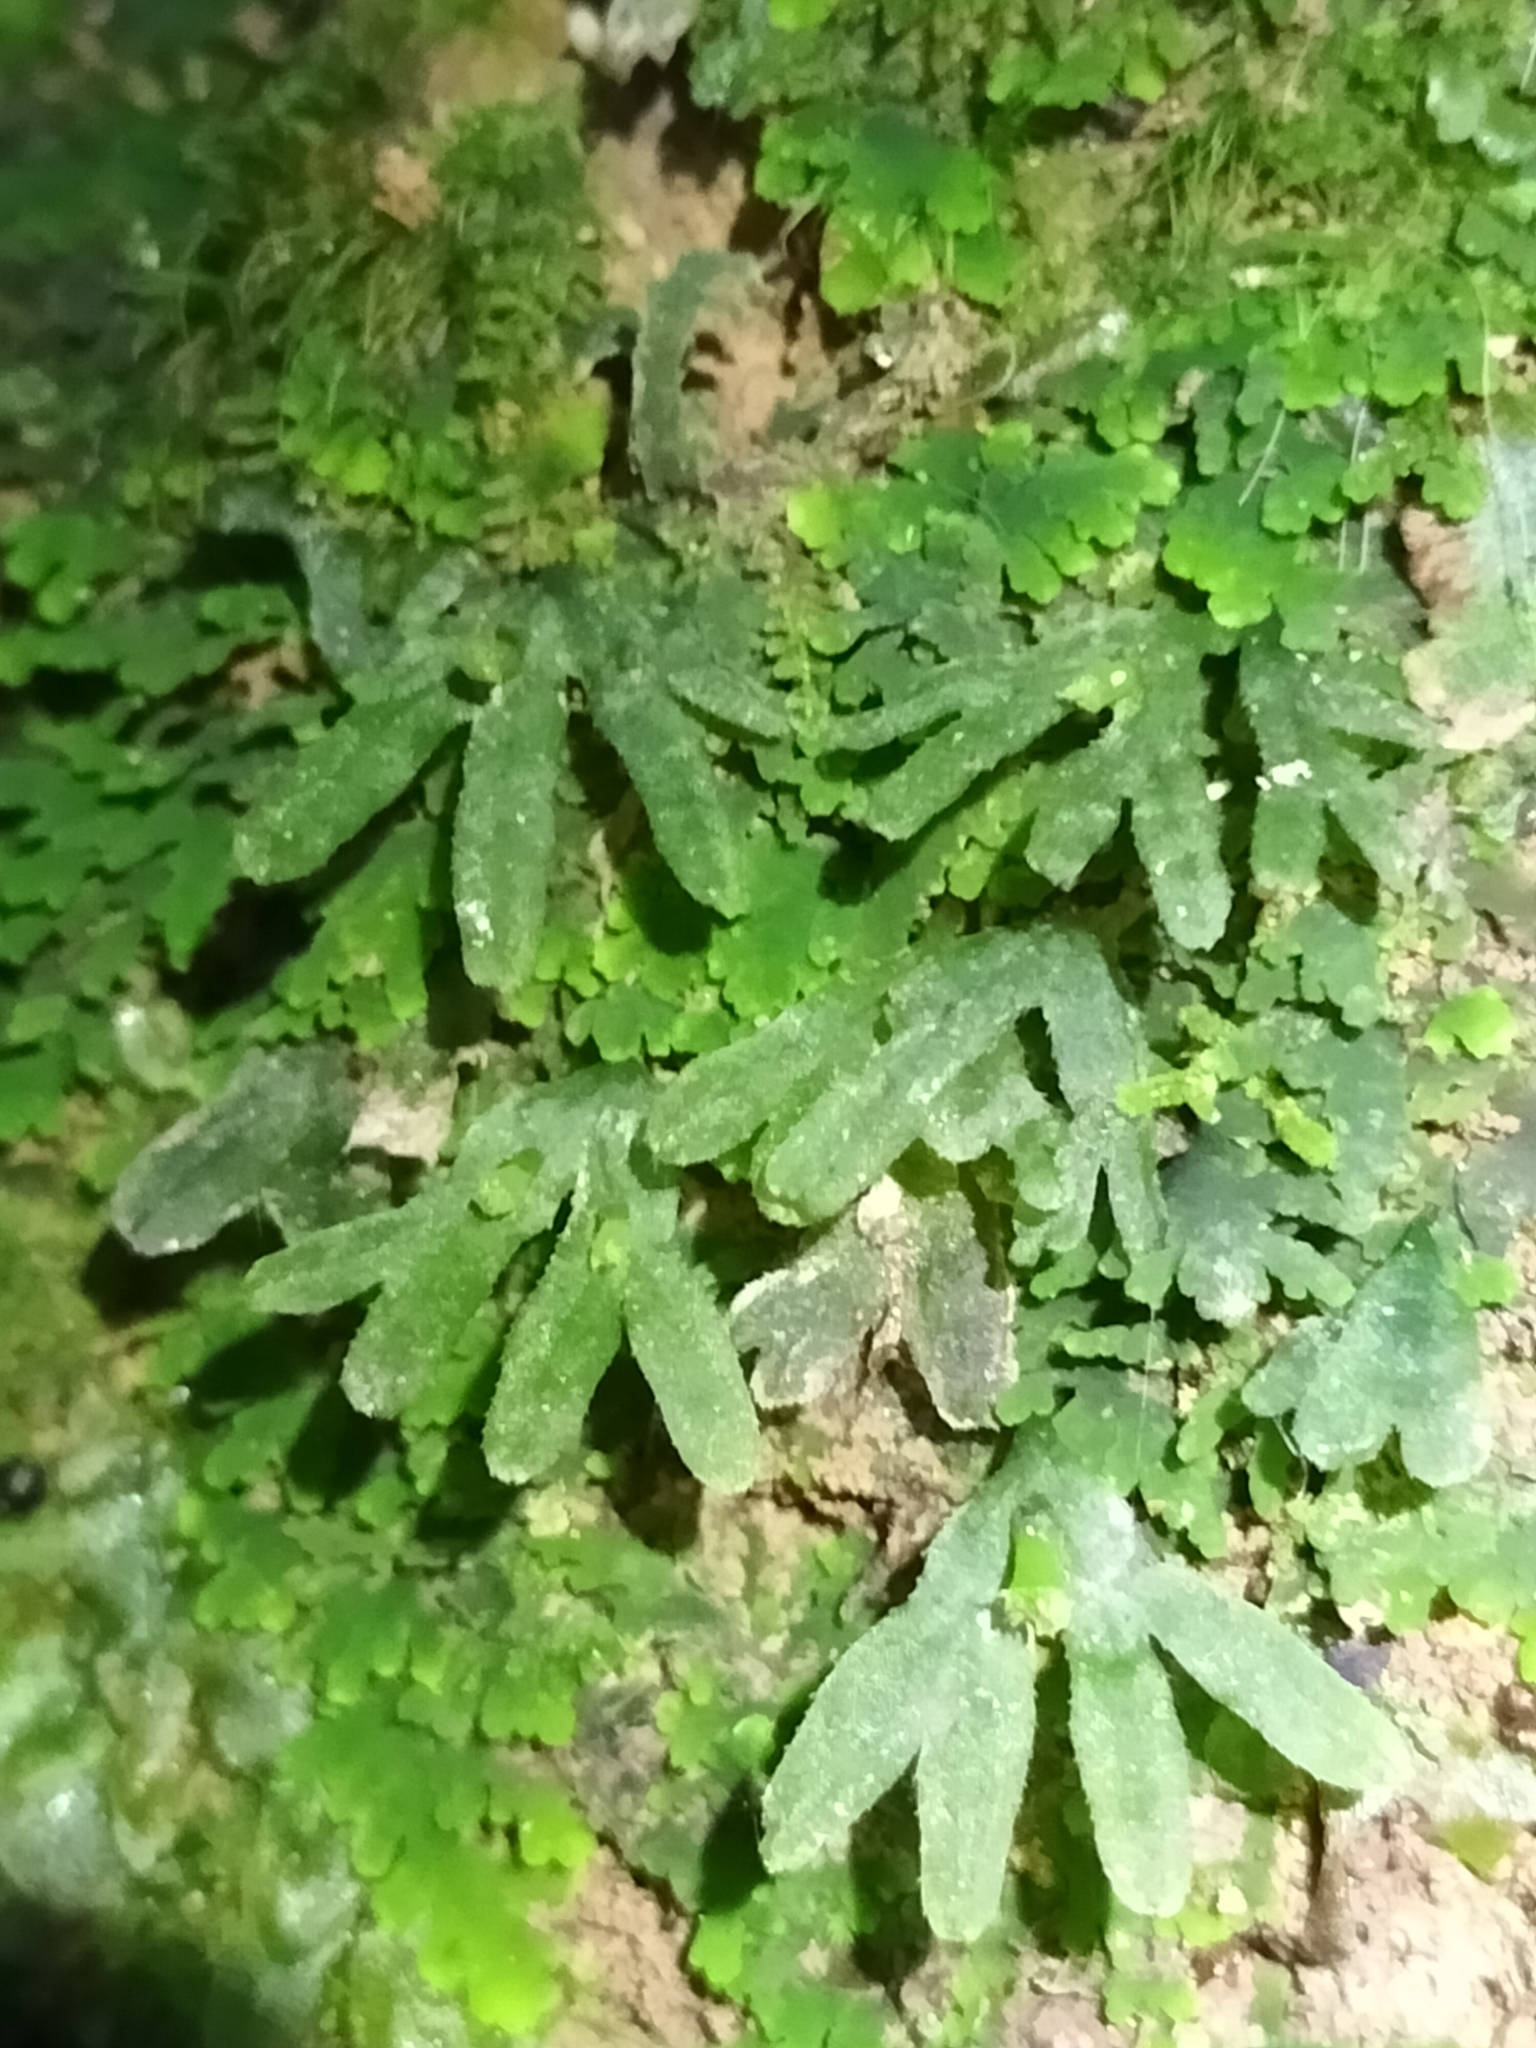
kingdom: Plantae
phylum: Marchantiophyta
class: Jungermanniopsida
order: Pallaviciniales
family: Pallaviciniaceae
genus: Symphyogyna
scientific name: Symphyogyna hymenophyllum
